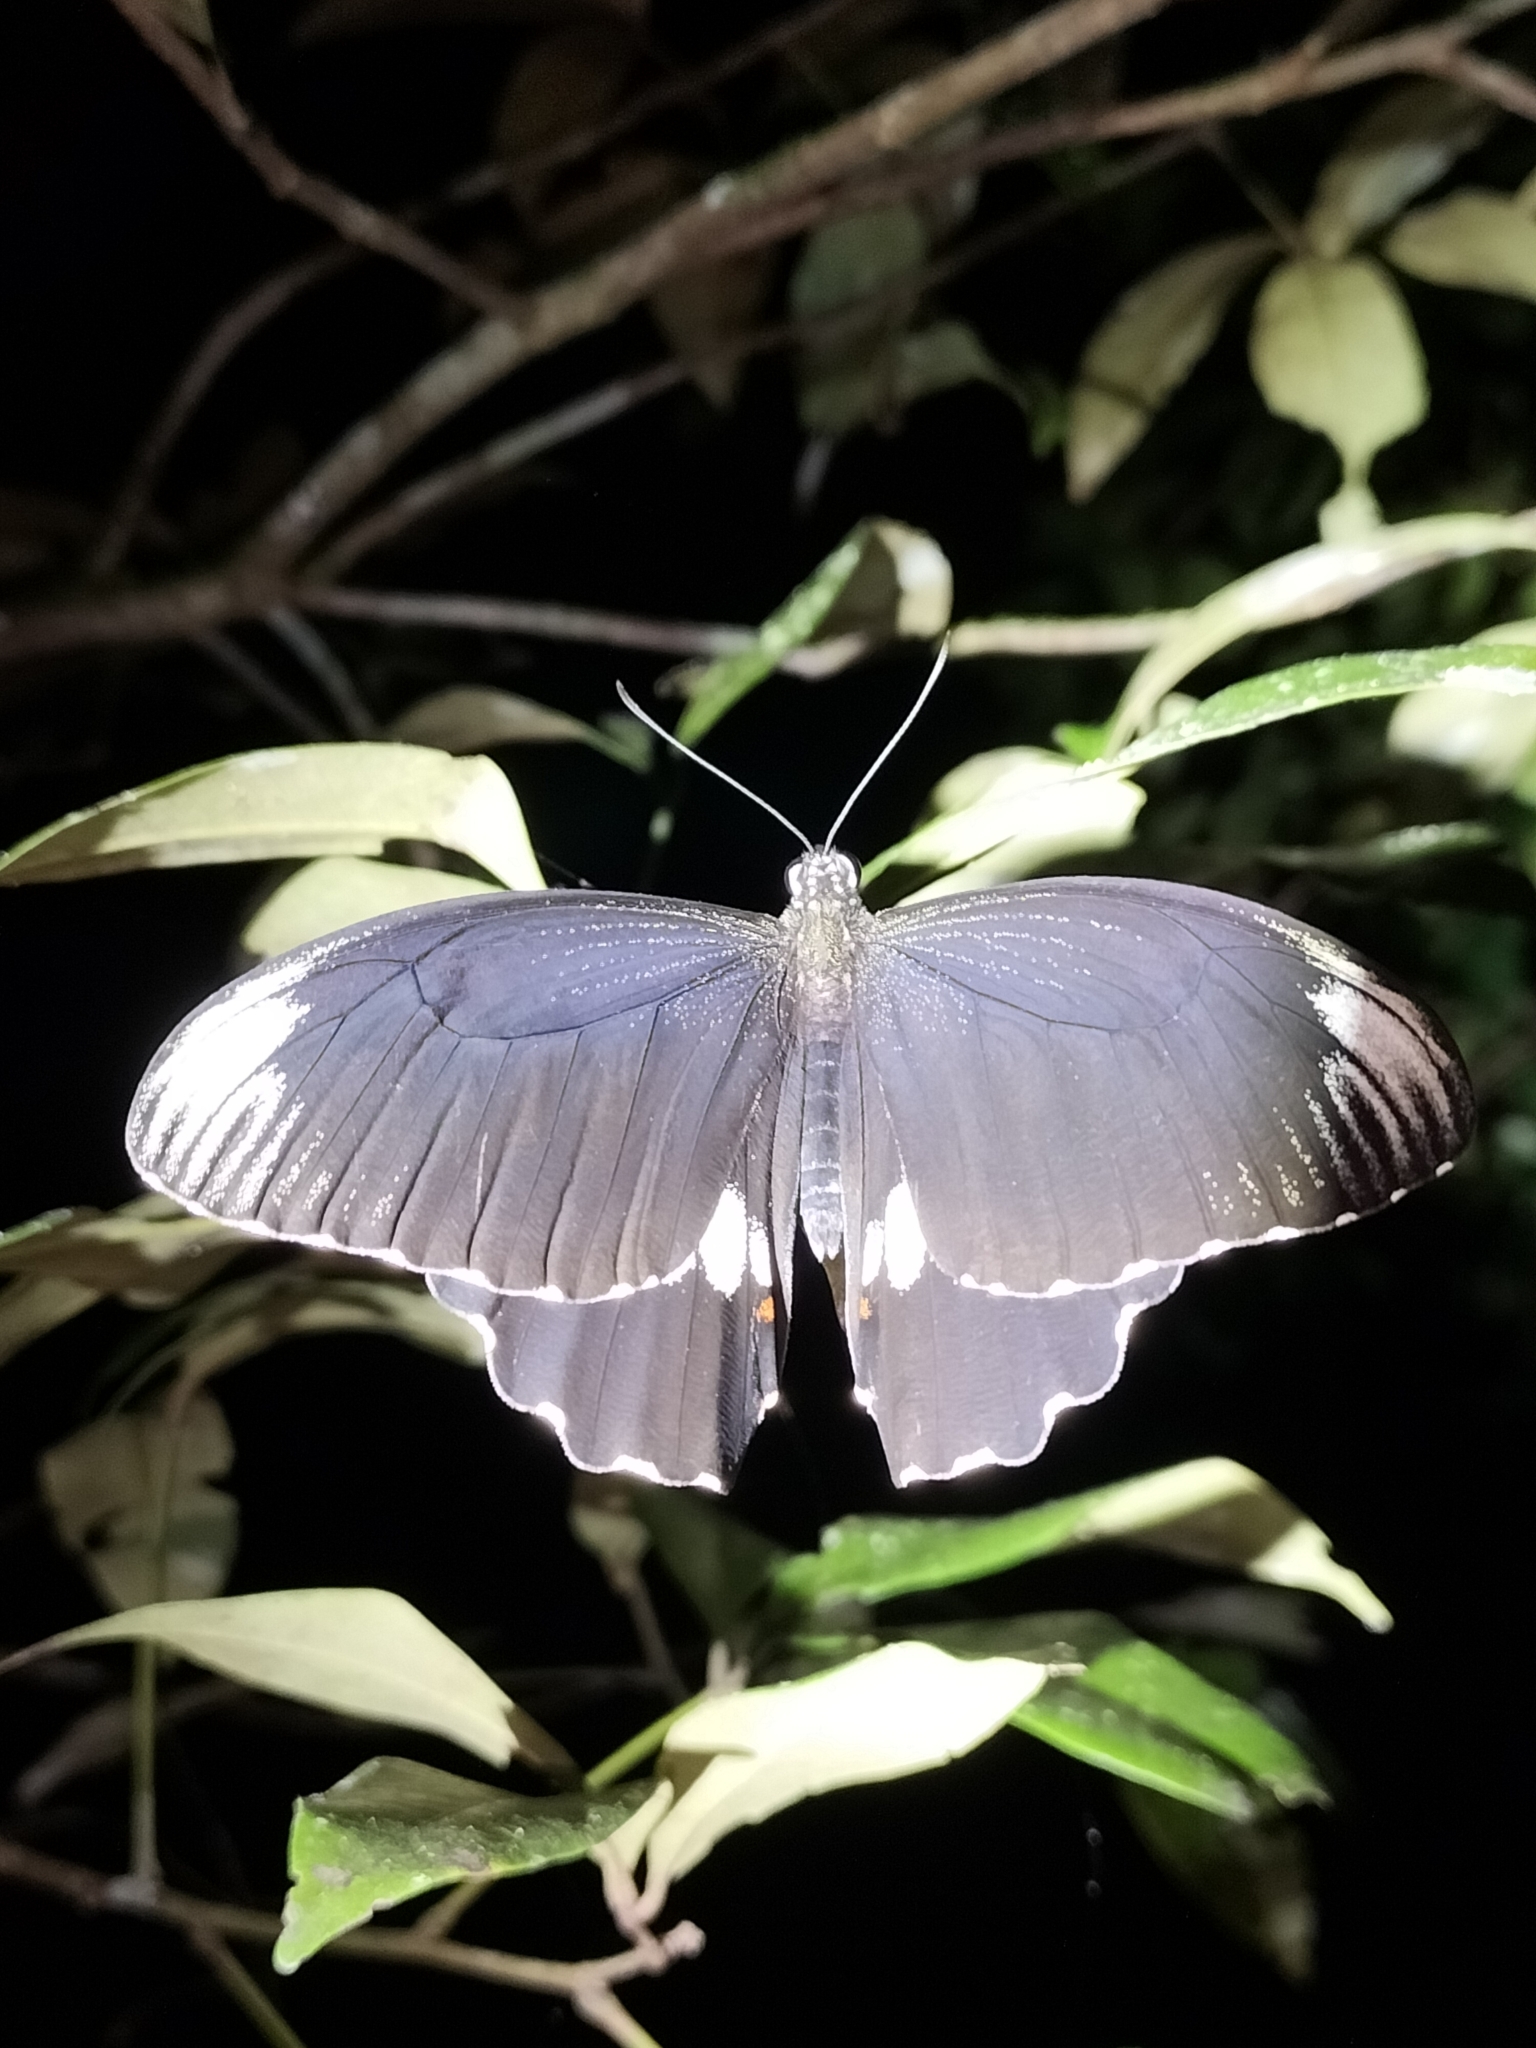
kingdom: Animalia
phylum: Arthropoda
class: Insecta
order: Lepidoptera
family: Papilionidae
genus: Papilio
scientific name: Papilio ambrax
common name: Ambrax butterfly
